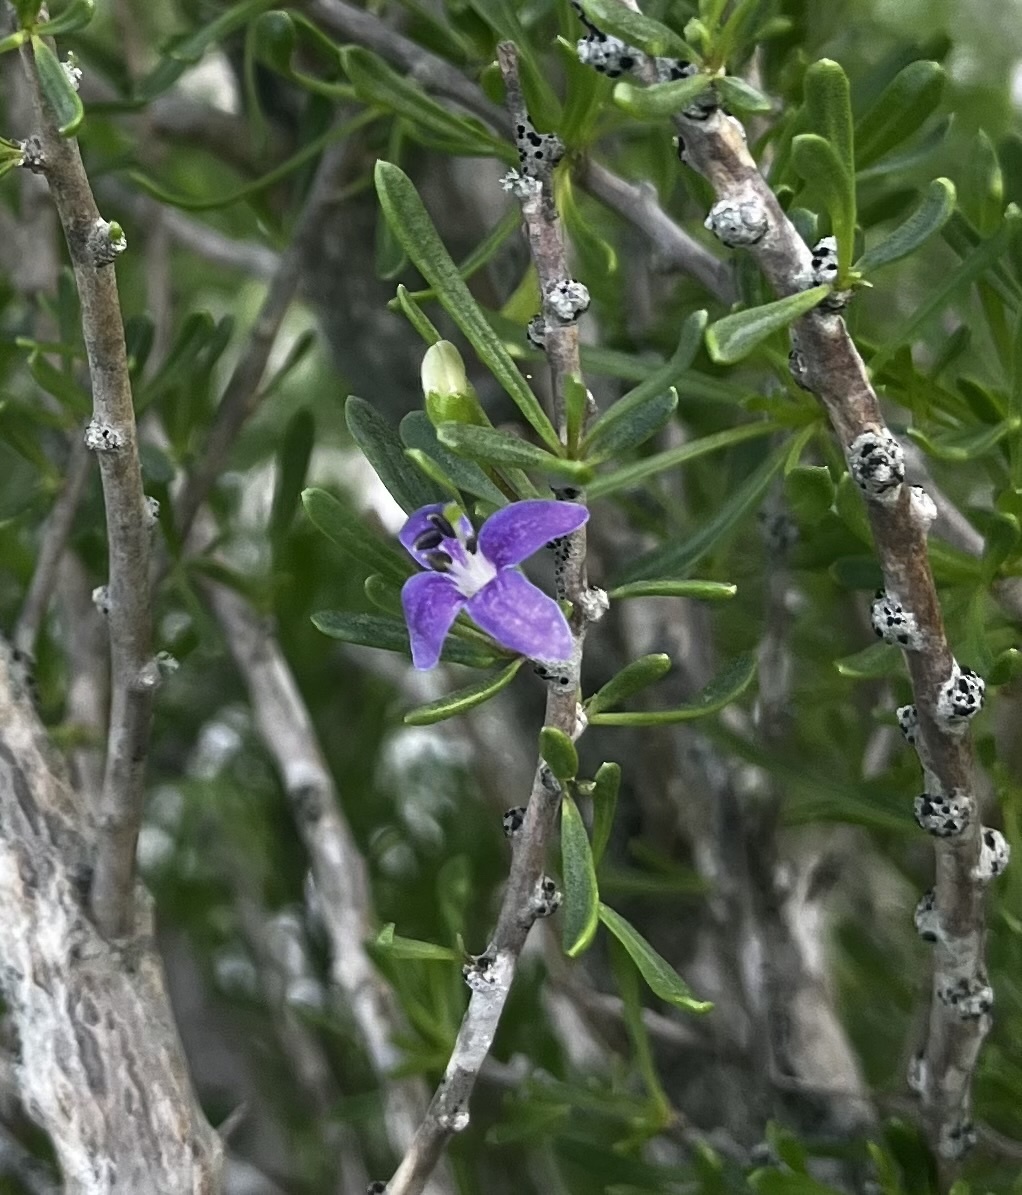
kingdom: Plantae
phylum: Tracheophyta
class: Magnoliopsida
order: Solanales
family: Solanaceae
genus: Lycium
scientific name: Lycium carolinianum
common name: Christmasberry
